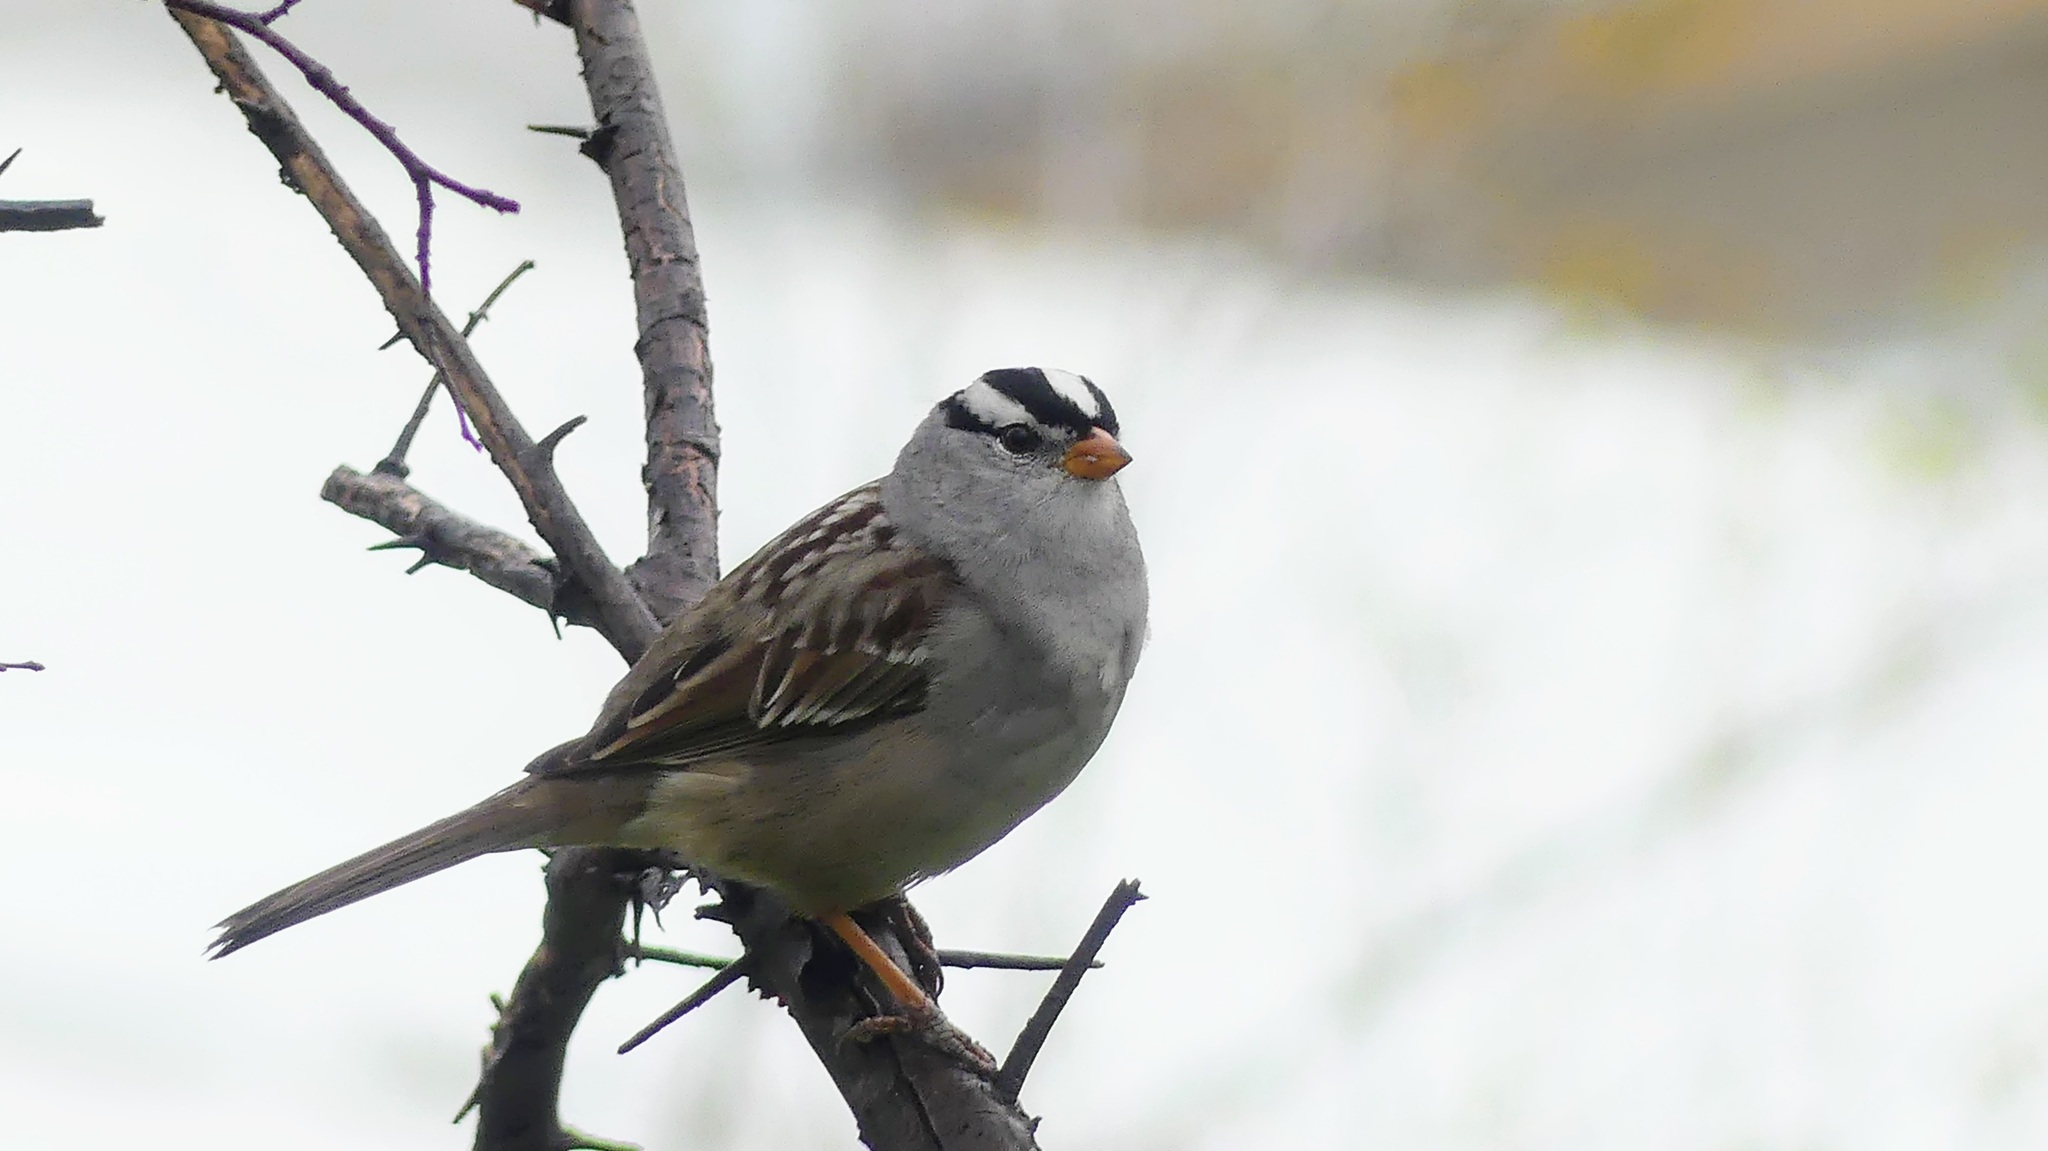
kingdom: Animalia
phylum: Chordata
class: Aves
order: Passeriformes
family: Passerellidae
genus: Zonotrichia
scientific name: Zonotrichia leucophrys
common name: White-crowned sparrow
